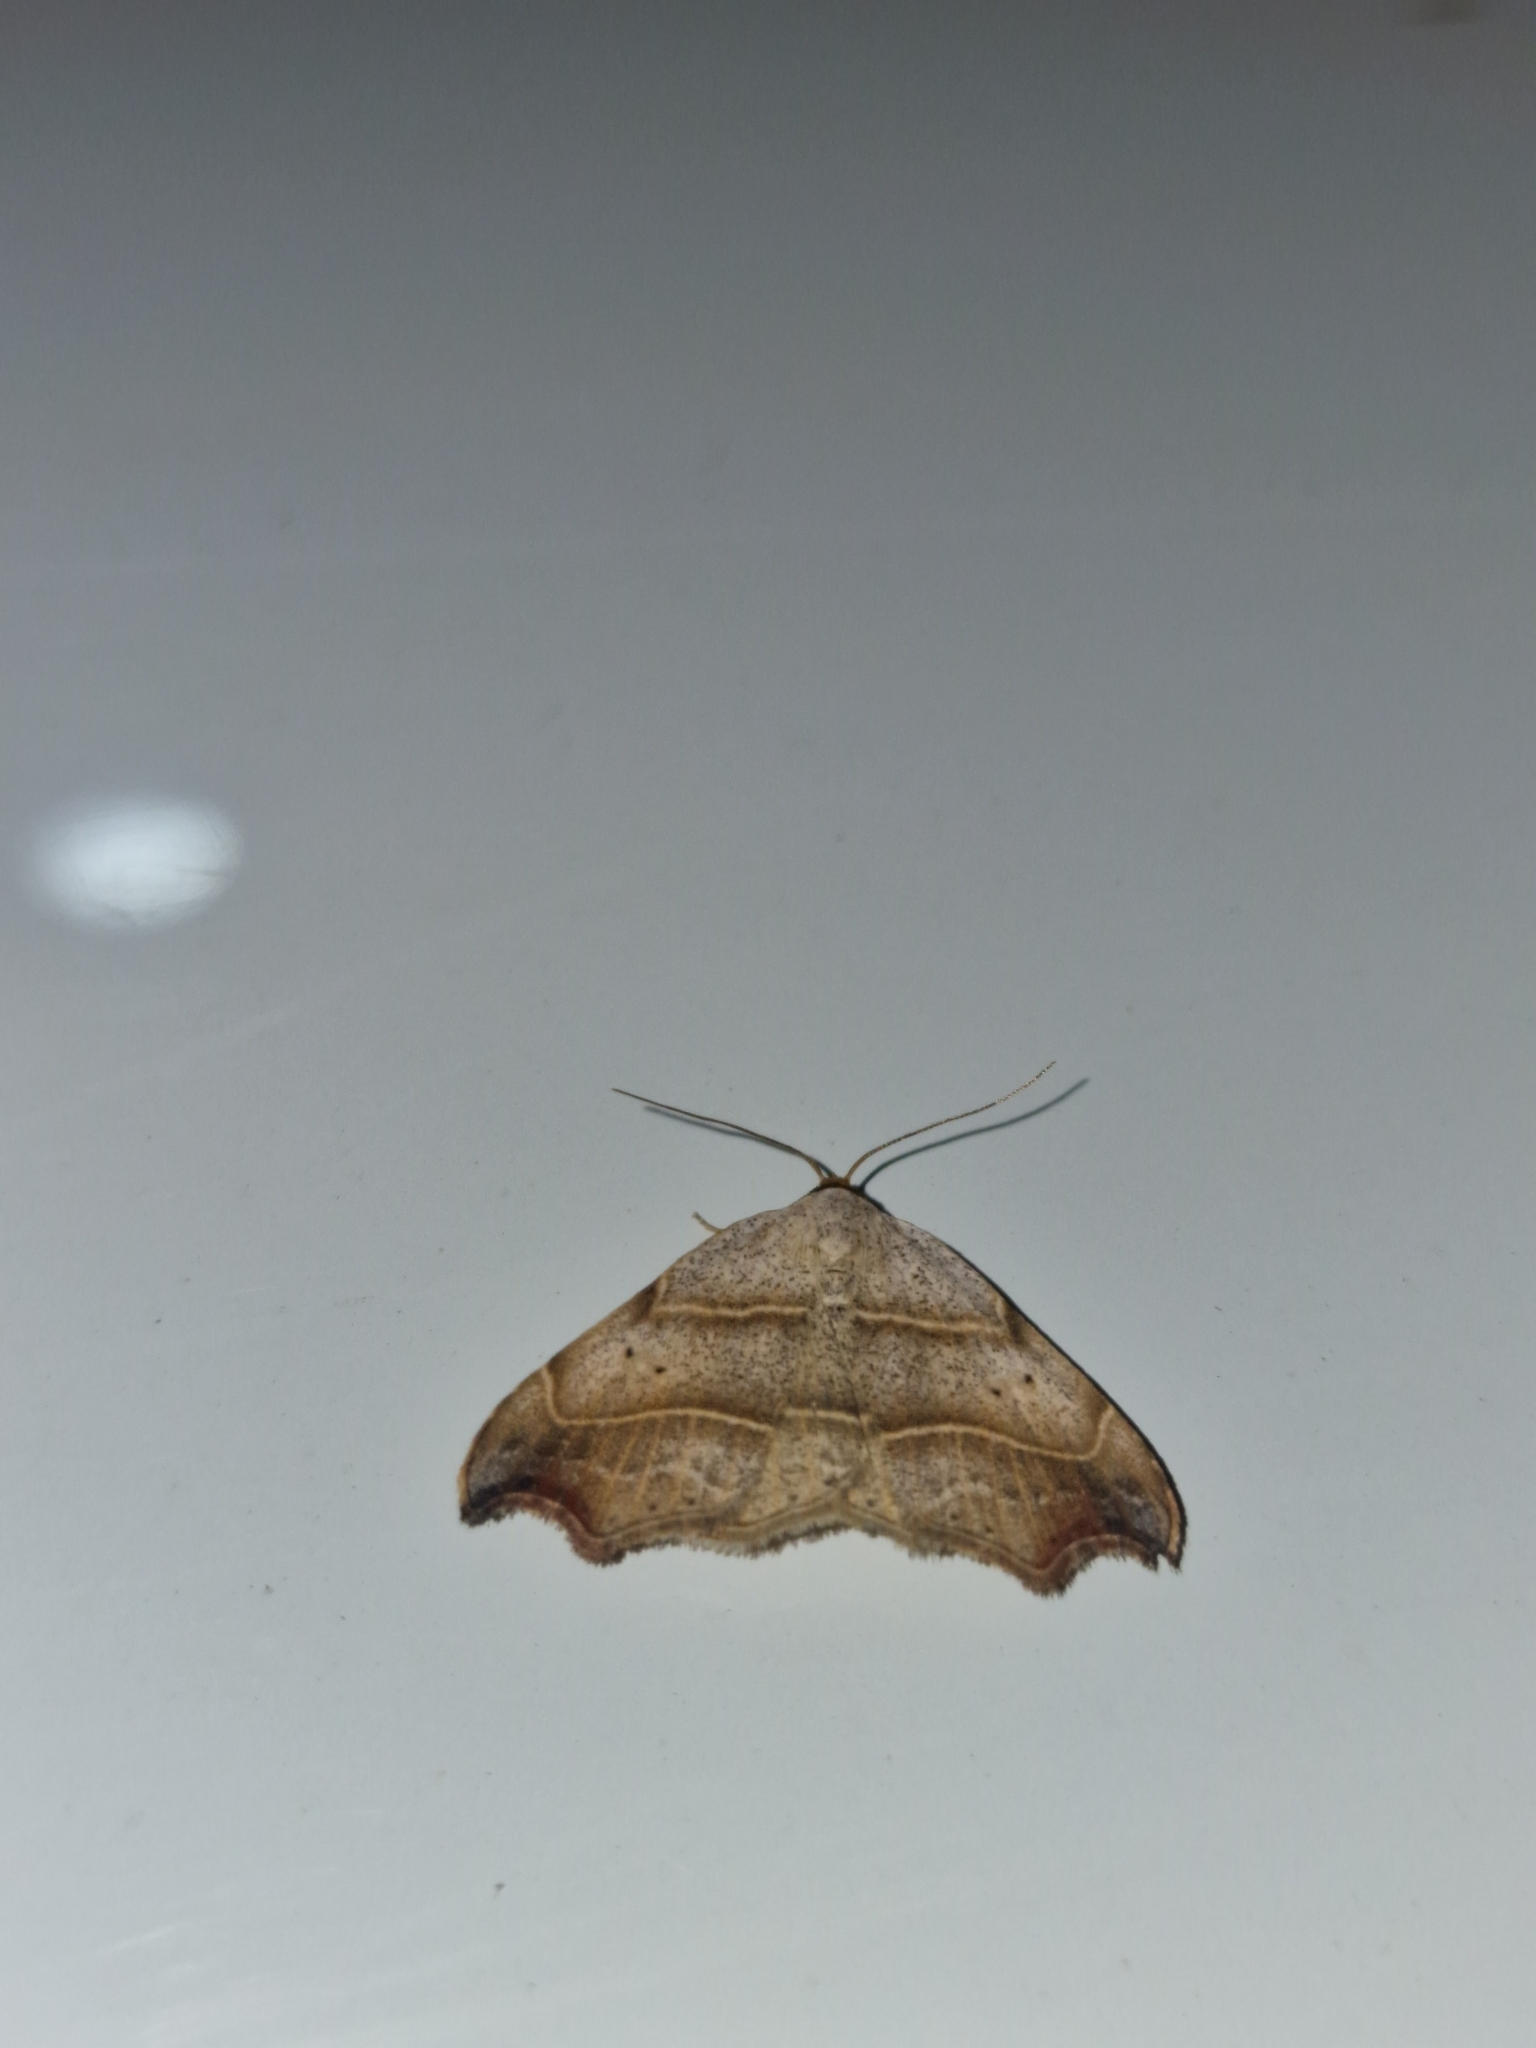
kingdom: Animalia
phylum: Arthropoda
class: Insecta
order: Lepidoptera
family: Erebidae
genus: Laspeyria
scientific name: Laspeyria flexula
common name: Beautiful hook-tip
